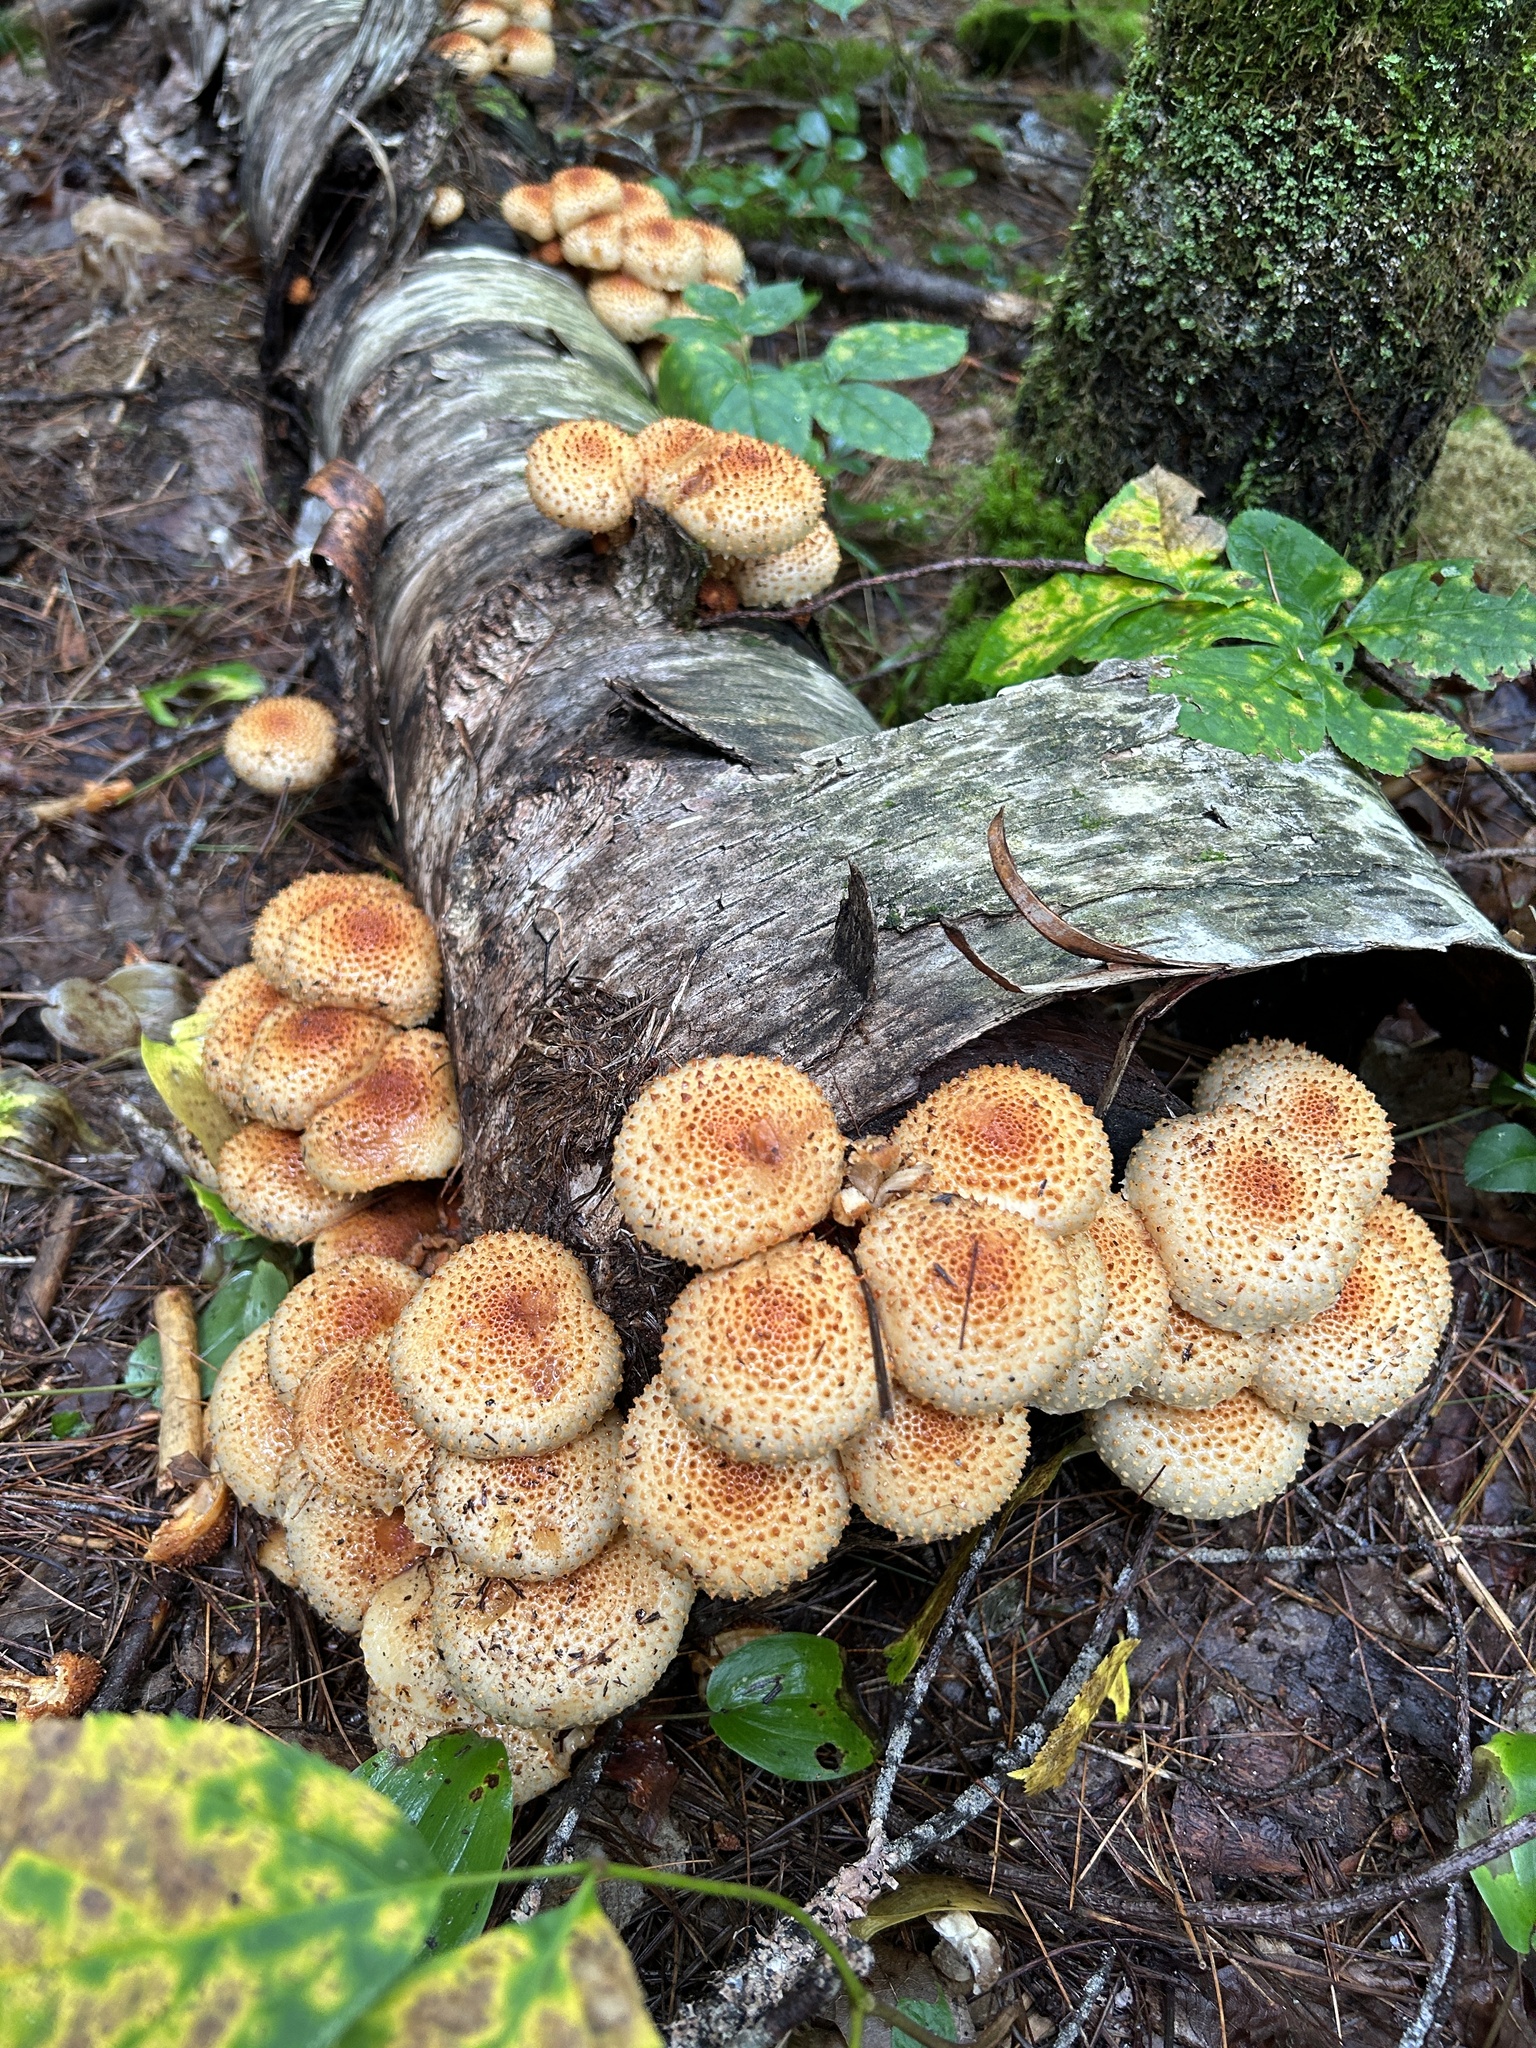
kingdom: Fungi
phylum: Basidiomycota
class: Agaricomycetes
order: Agaricales
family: Strophariaceae
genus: Pholiota
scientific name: Pholiota squarrosa
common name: Shaggy pholiota
